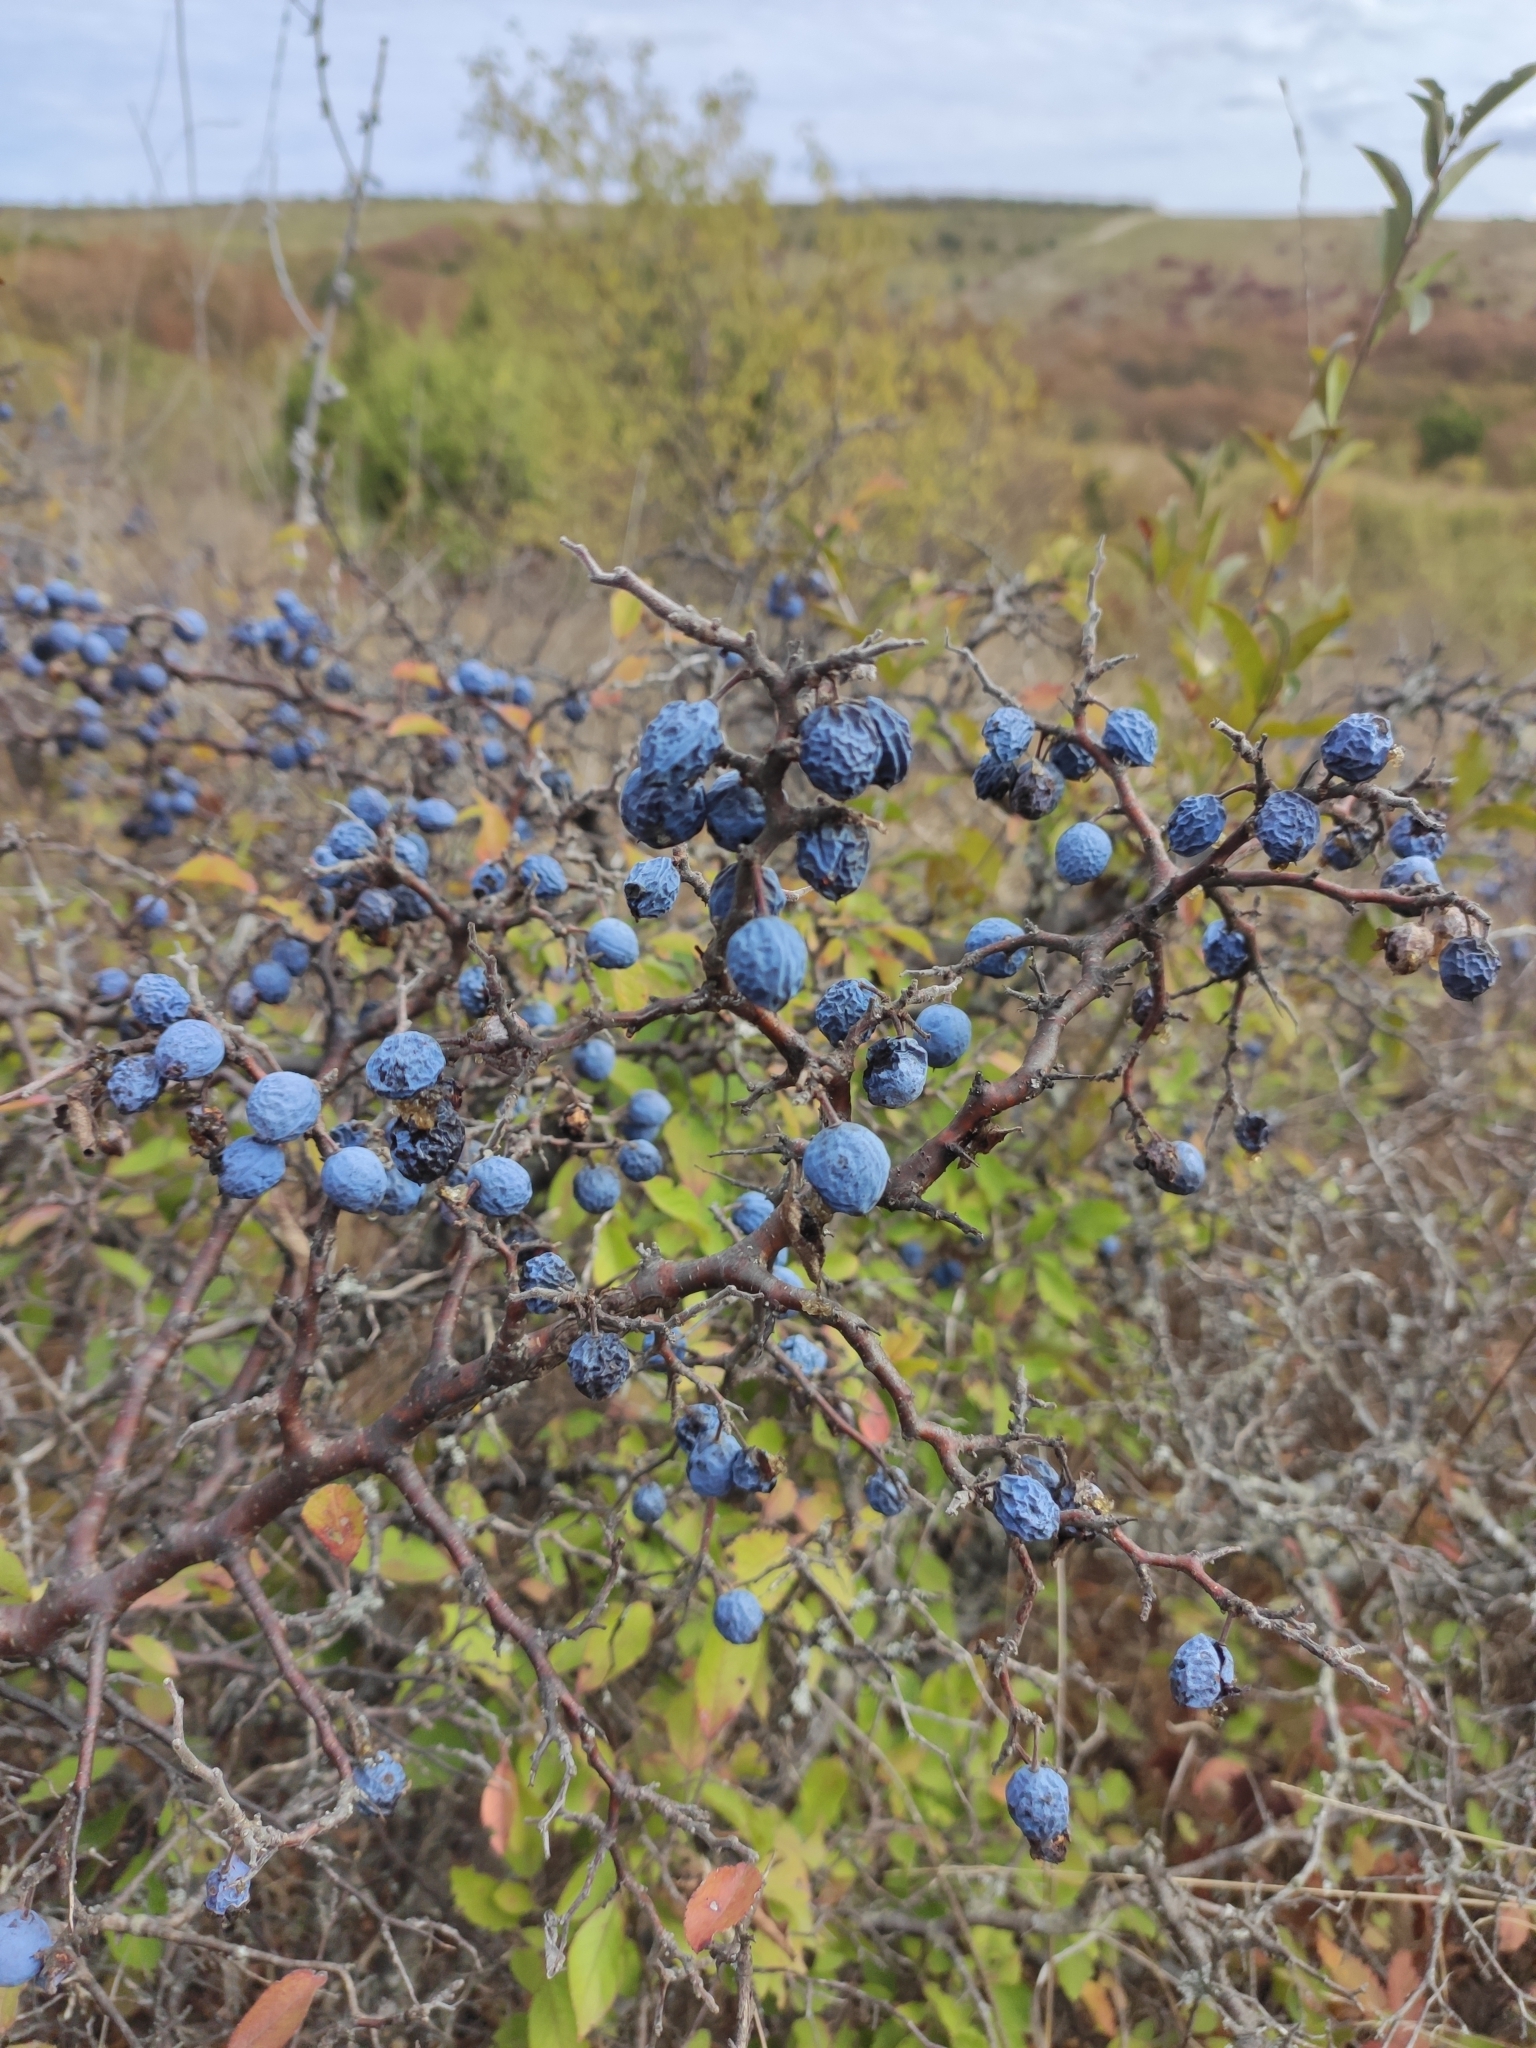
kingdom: Plantae
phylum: Tracheophyta
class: Magnoliopsida
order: Rosales
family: Rosaceae
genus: Prunus
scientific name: Prunus spinosa
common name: Blackthorn
